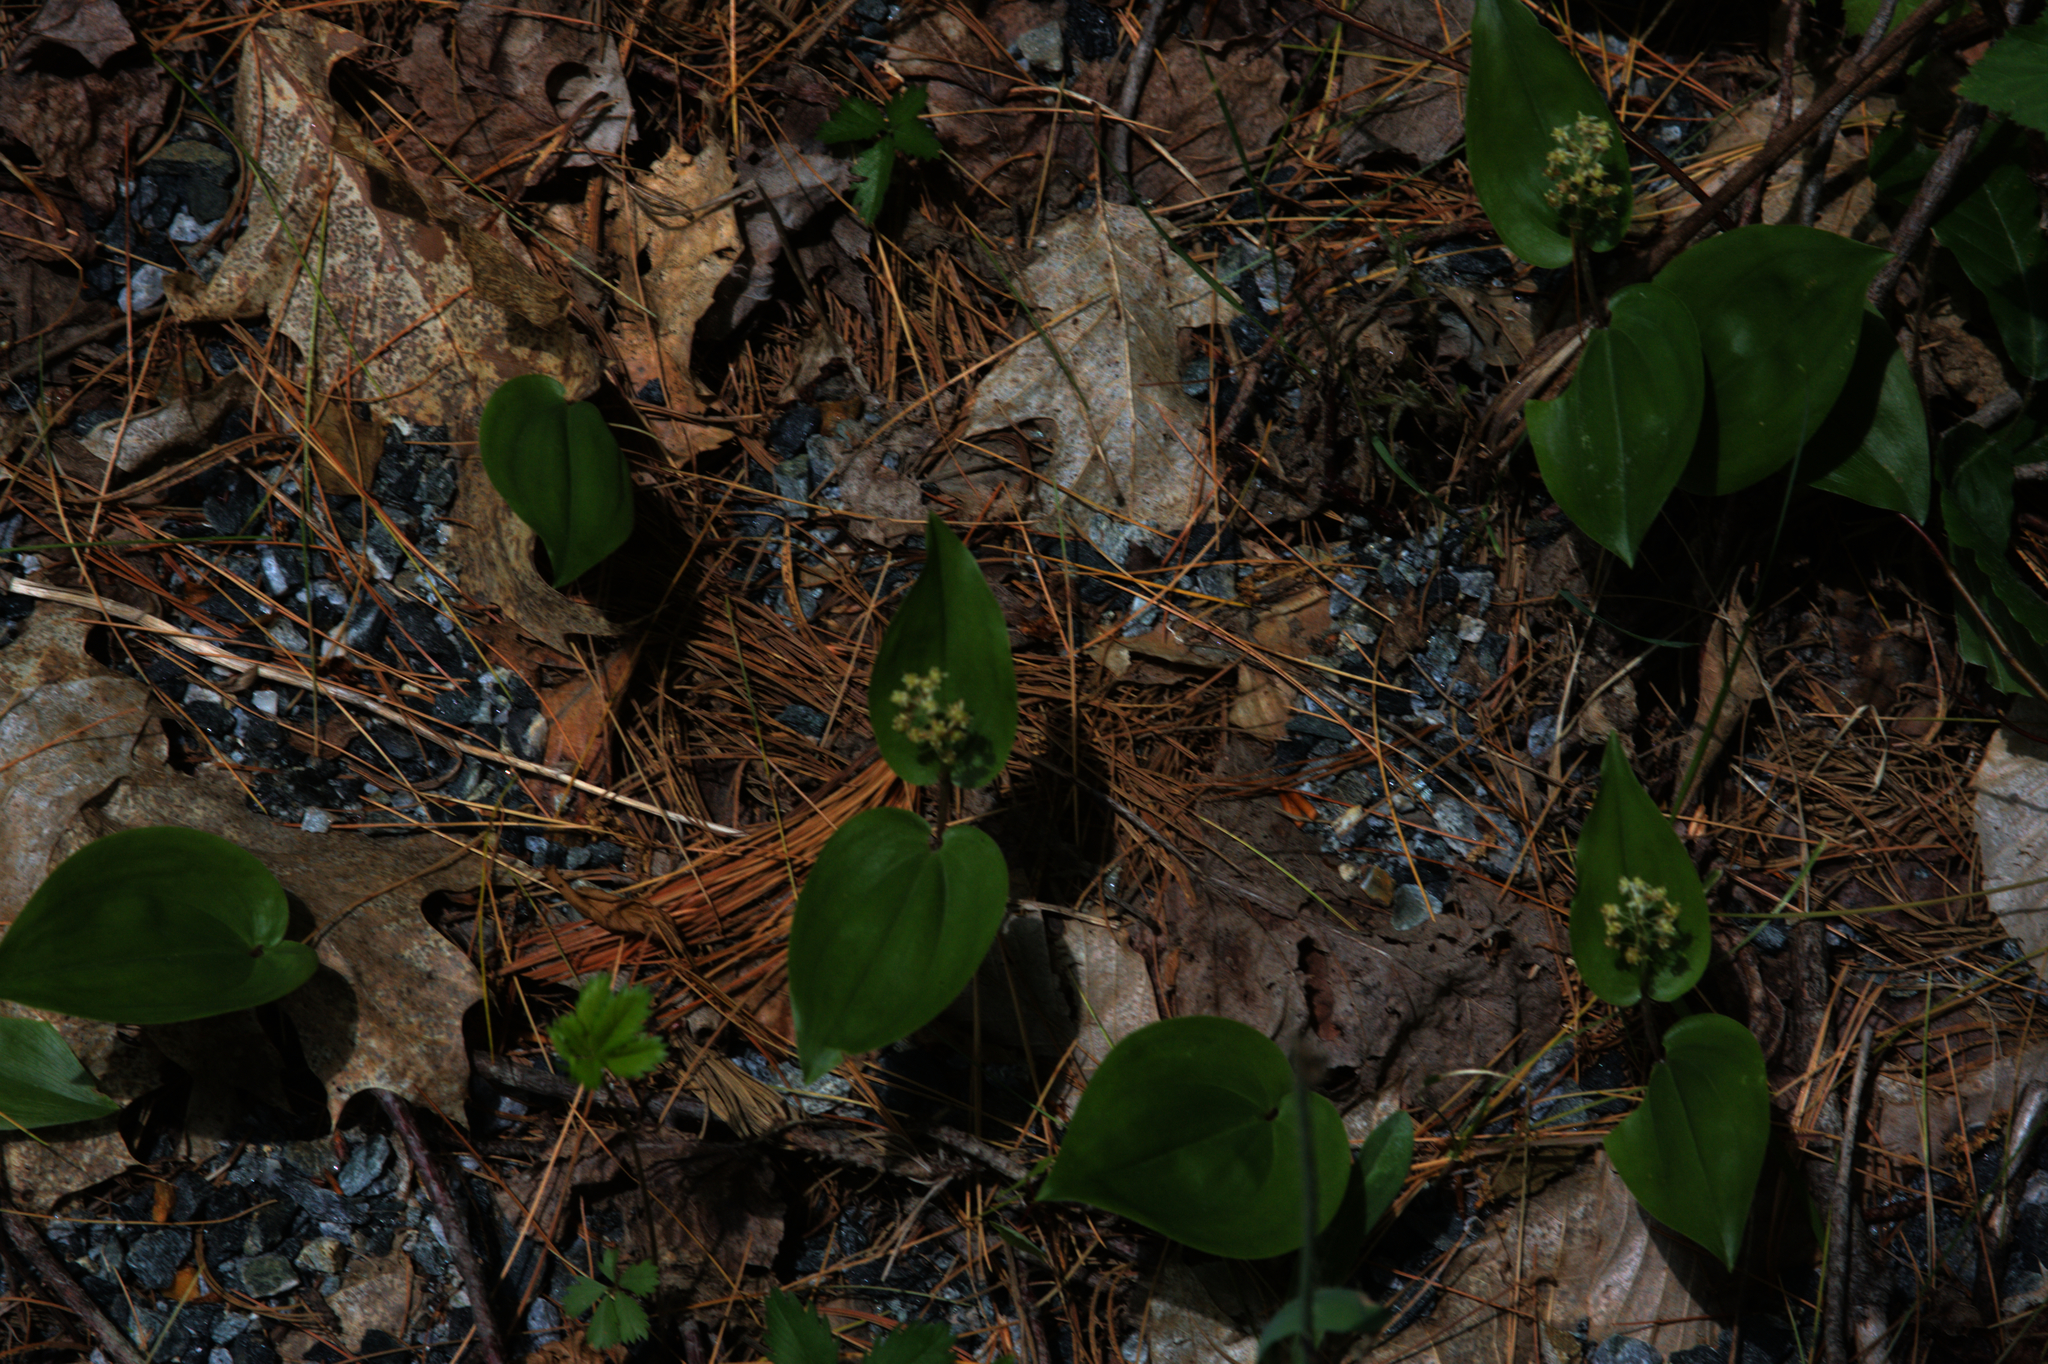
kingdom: Plantae
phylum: Tracheophyta
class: Liliopsida
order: Asparagales
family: Asparagaceae
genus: Maianthemum
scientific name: Maianthemum canadense
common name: False lily-of-the-valley
